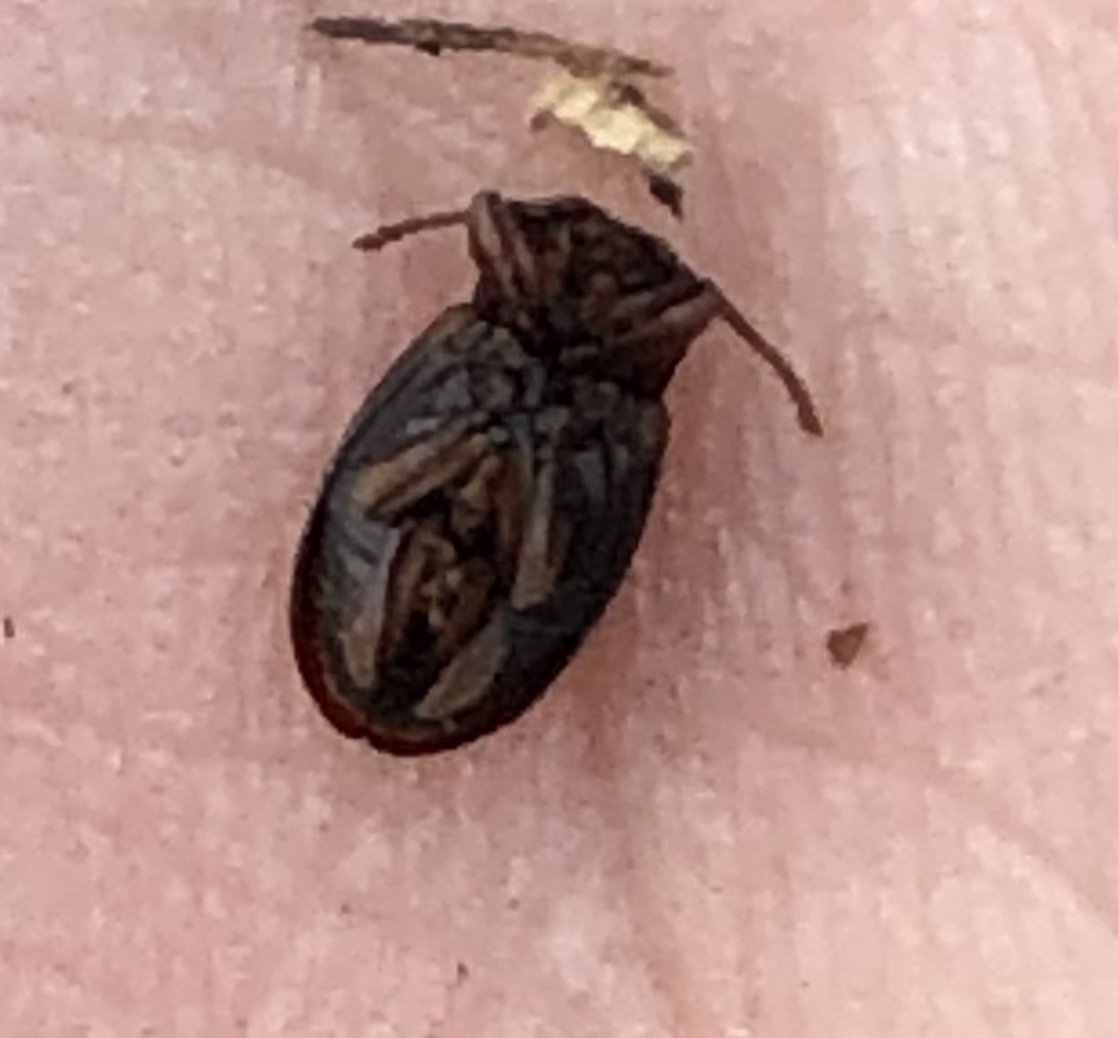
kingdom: Animalia
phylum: Arthropoda
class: Insecta
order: Coleoptera
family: Endomychidae
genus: Aphorista
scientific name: Aphorista morosa
